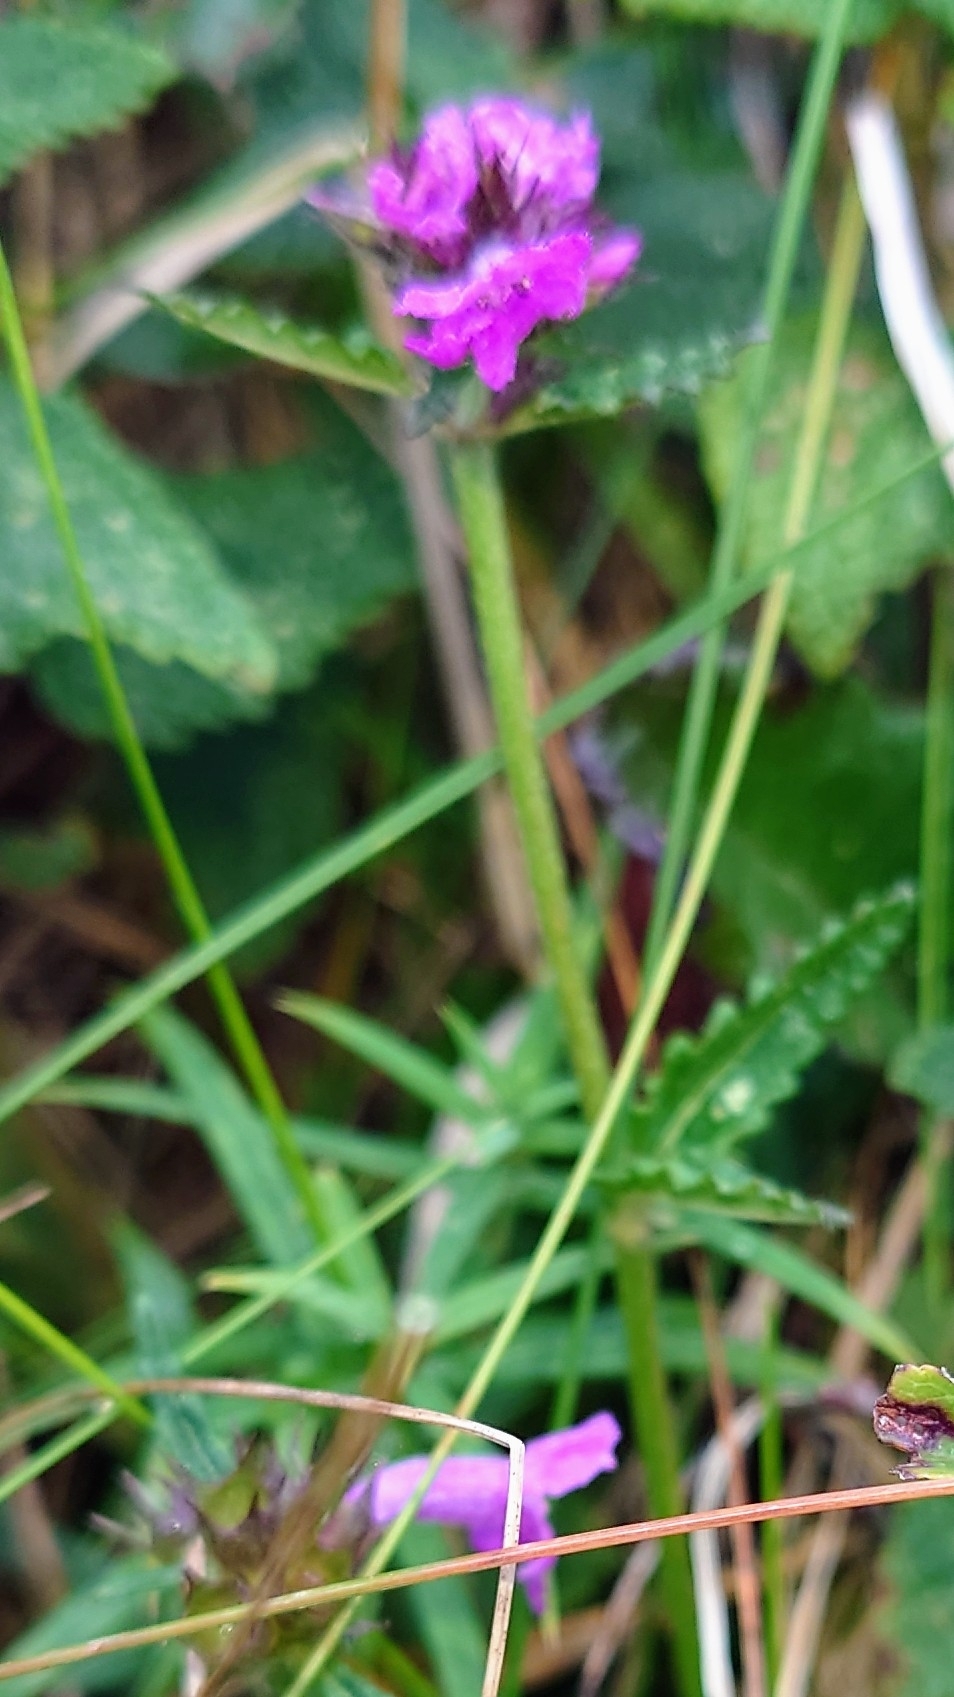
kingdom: Plantae
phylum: Tracheophyta
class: Magnoliopsida
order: Lamiales
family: Lamiaceae
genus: Betonica
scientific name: Betonica officinalis
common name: Bishop's-wort
